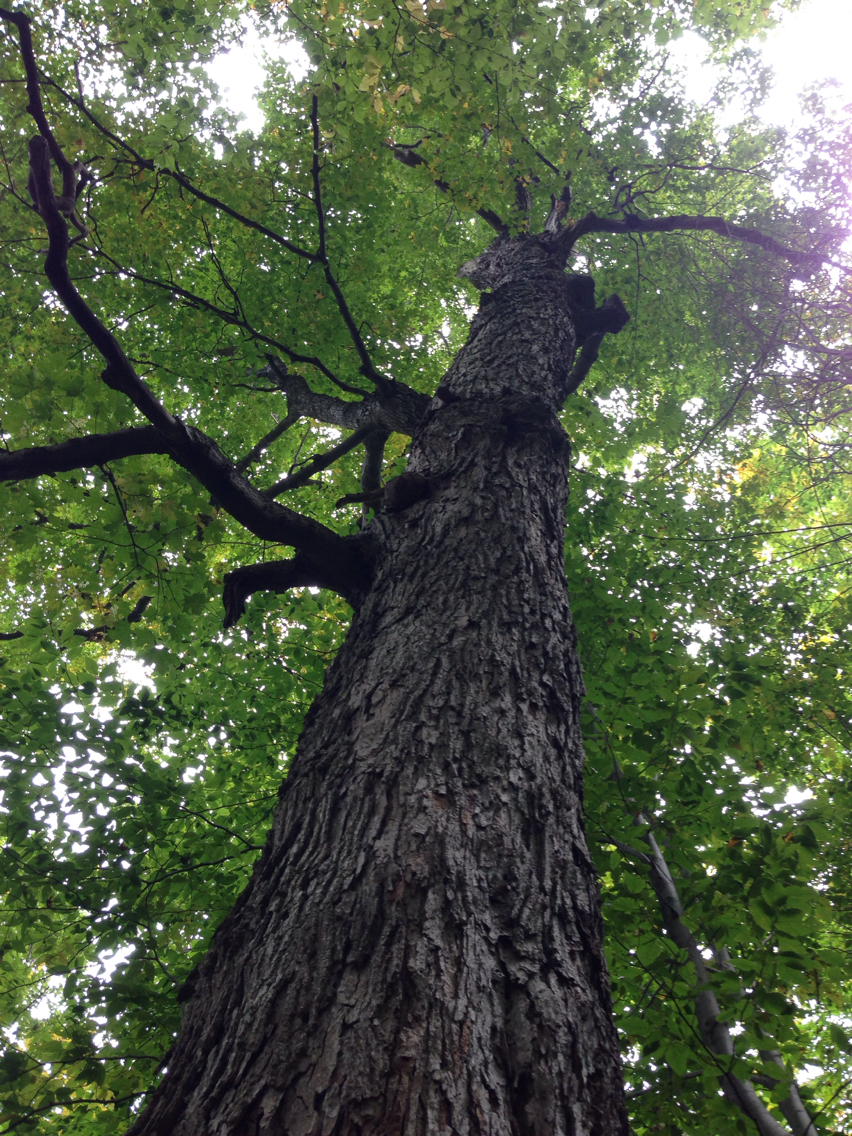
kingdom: Plantae
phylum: Tracheophyta
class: Magnoliopsida
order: Sapindales
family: Sapindaceae
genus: Acer
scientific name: Acer saccharum
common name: Sugar maple
